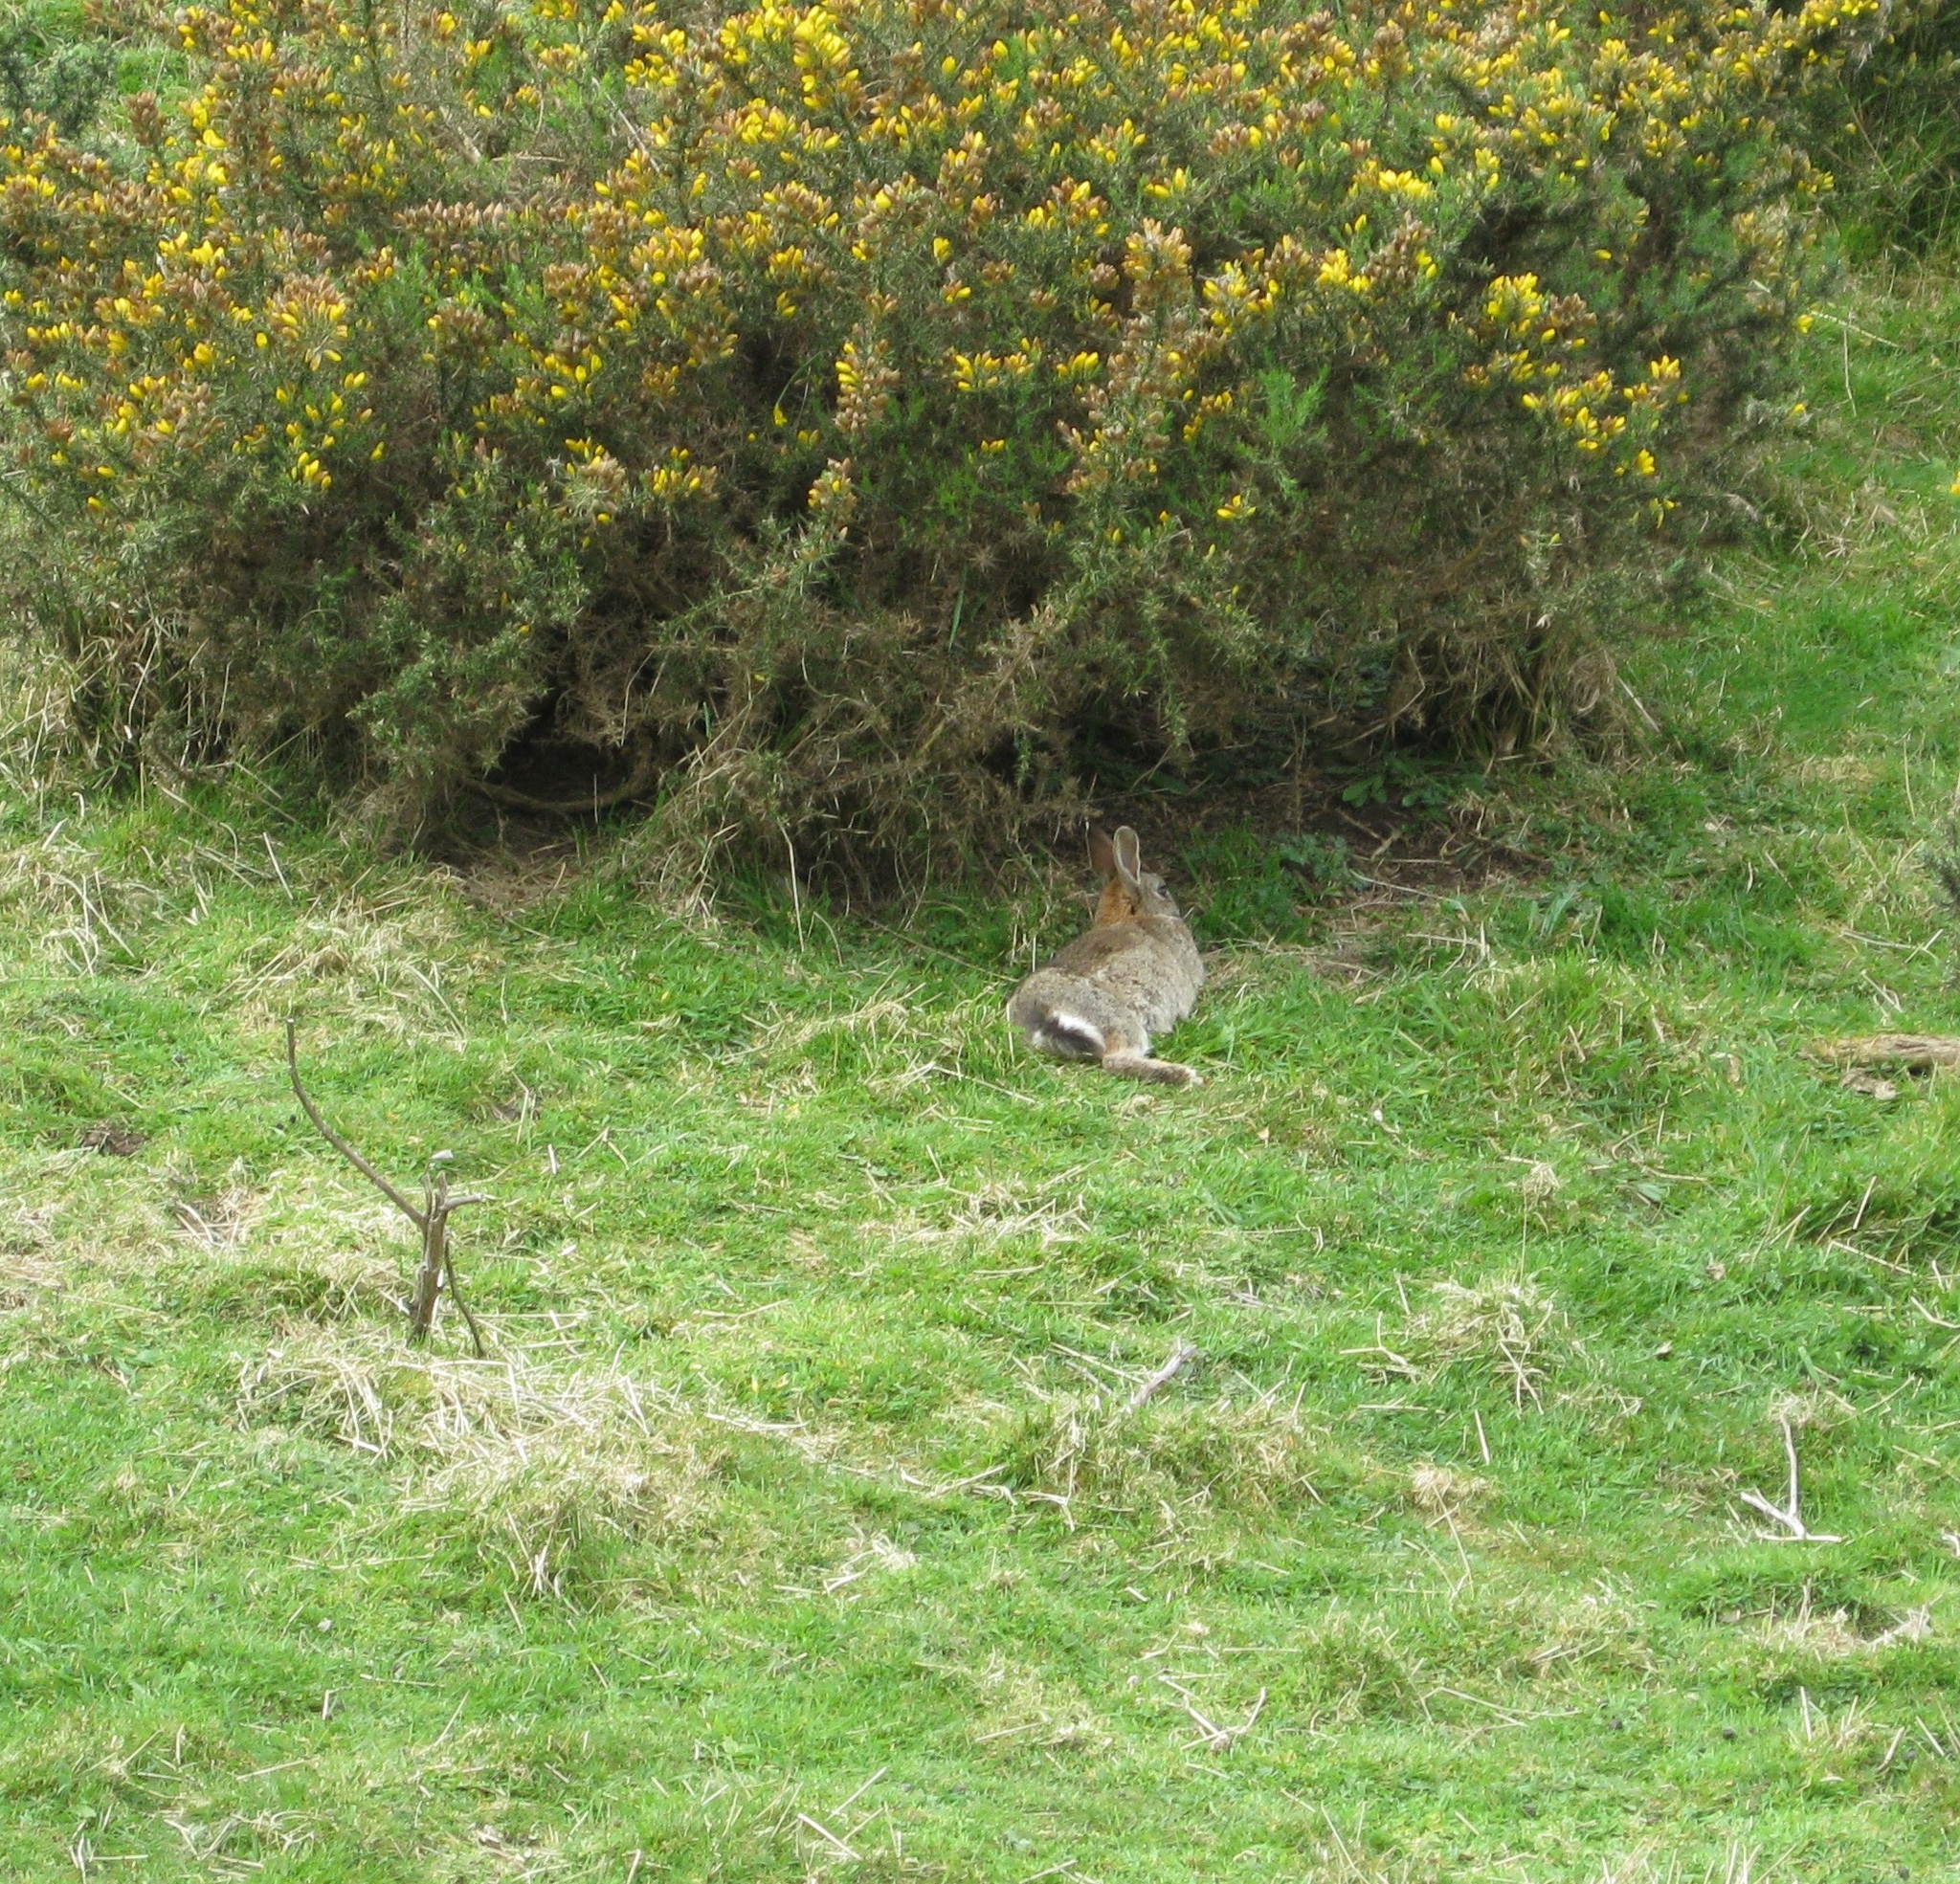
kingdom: Plantae
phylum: Tracheophyta
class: Magnoliopsida
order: Fabales
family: Fabaceae
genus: Ulex
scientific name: Ulex europaeus
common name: Common gorse
